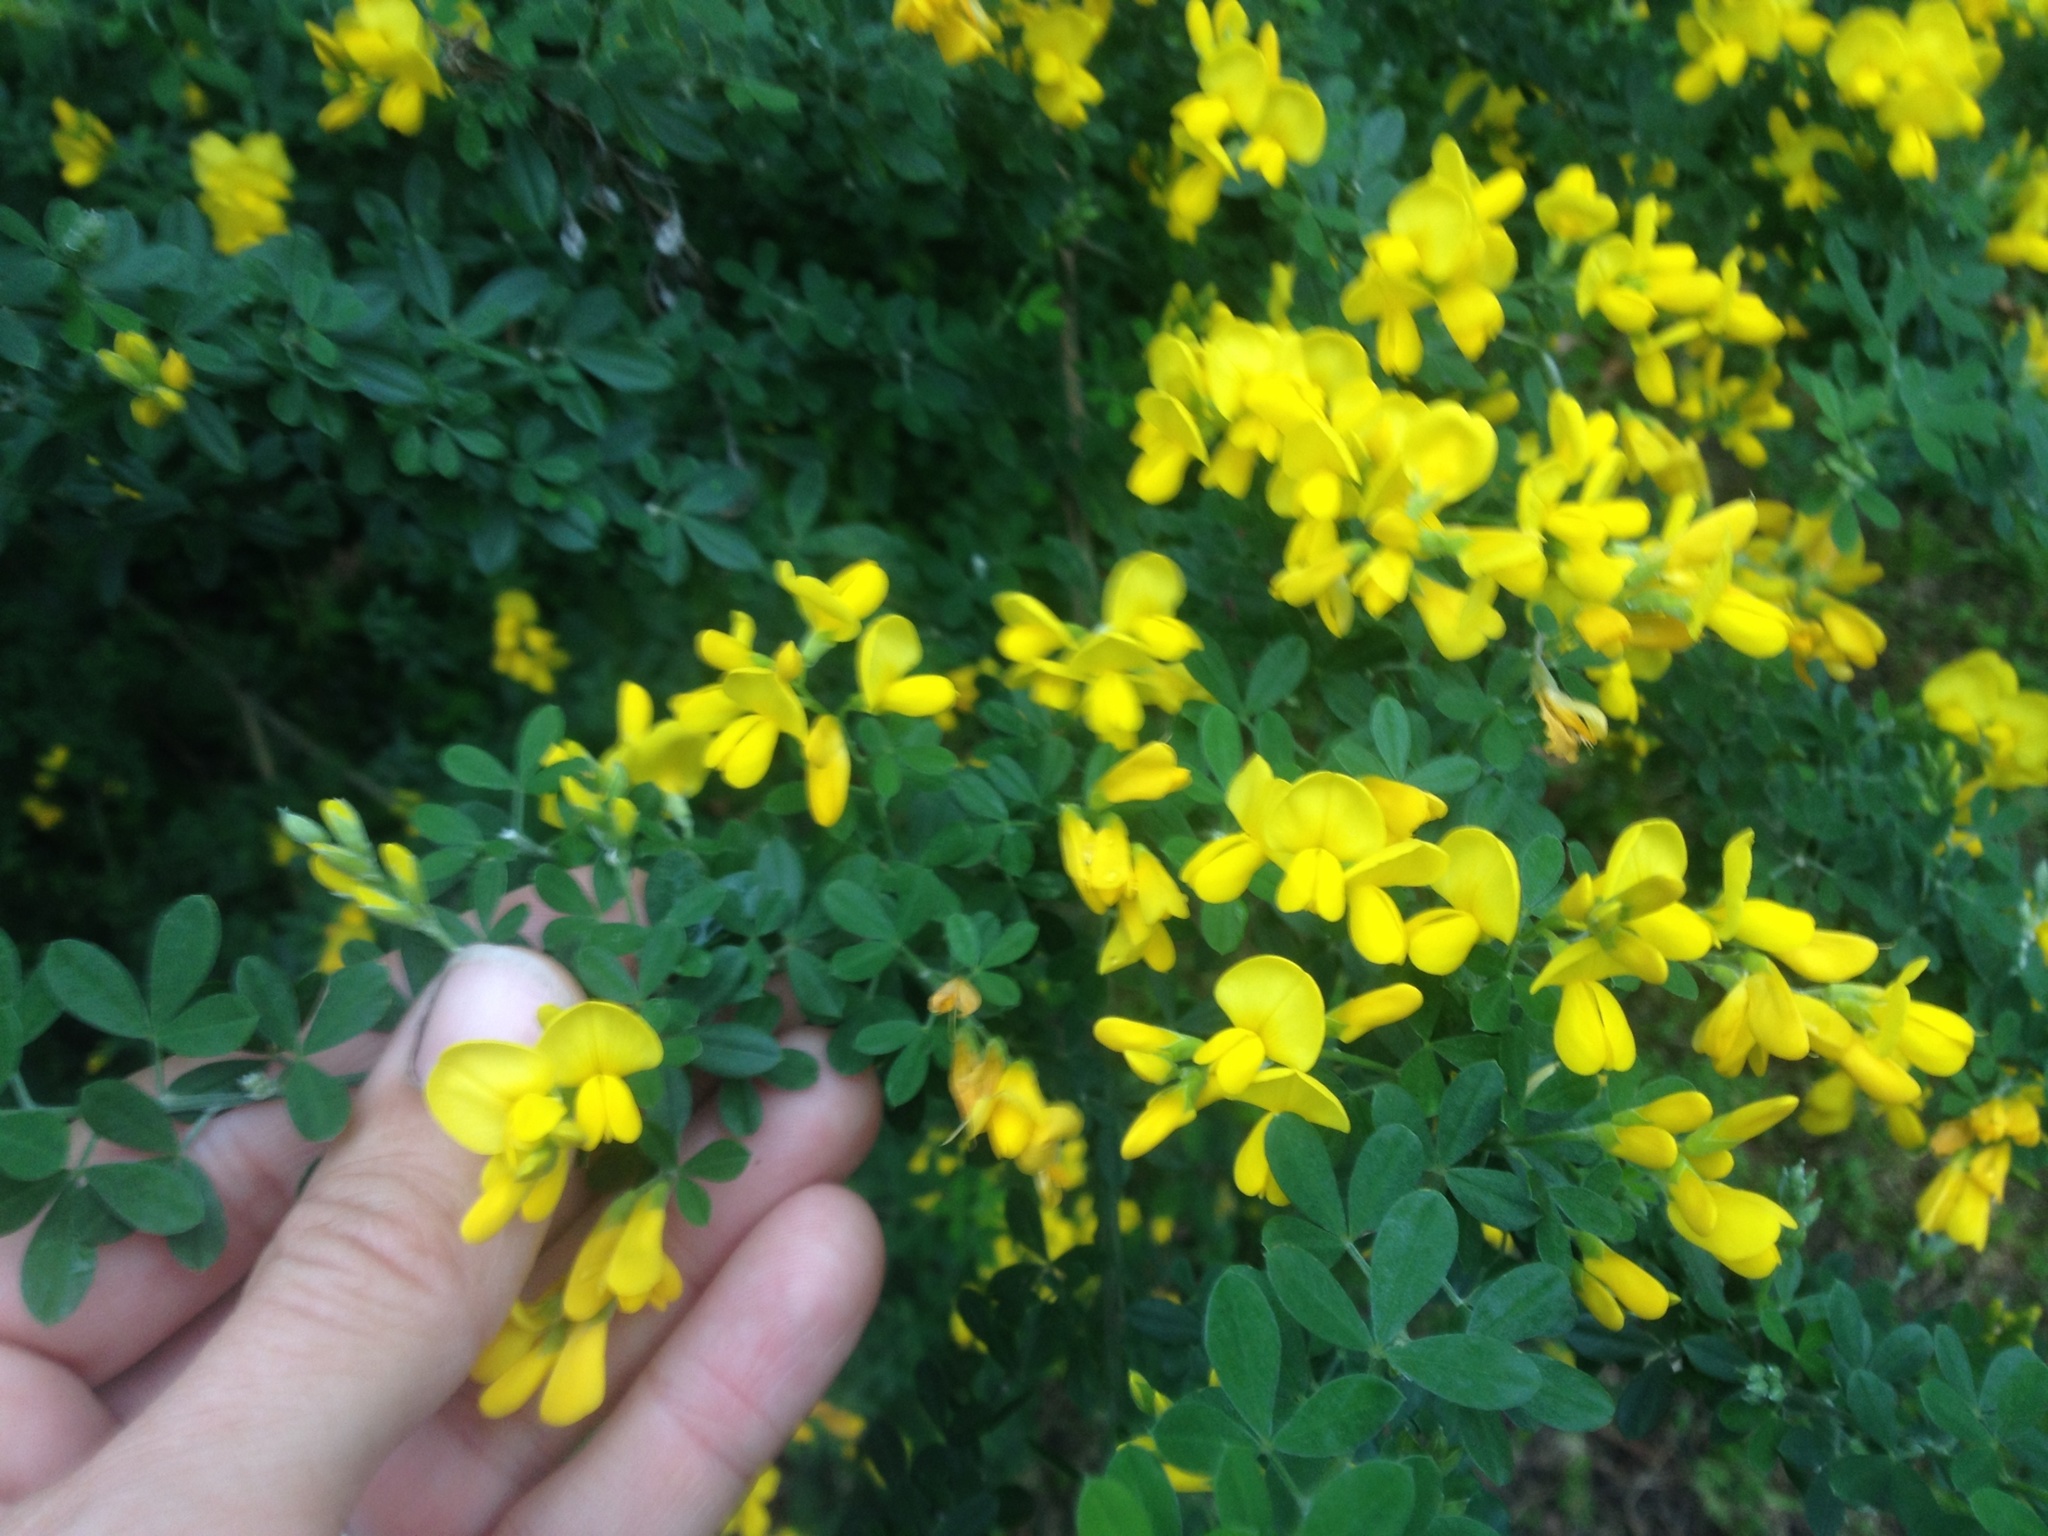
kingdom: Plantae
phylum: Tracheophyta
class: Magnoliopsida
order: Fabales
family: Fabaceae
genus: Genista
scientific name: Genista monspessulana
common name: Montpellier broom
